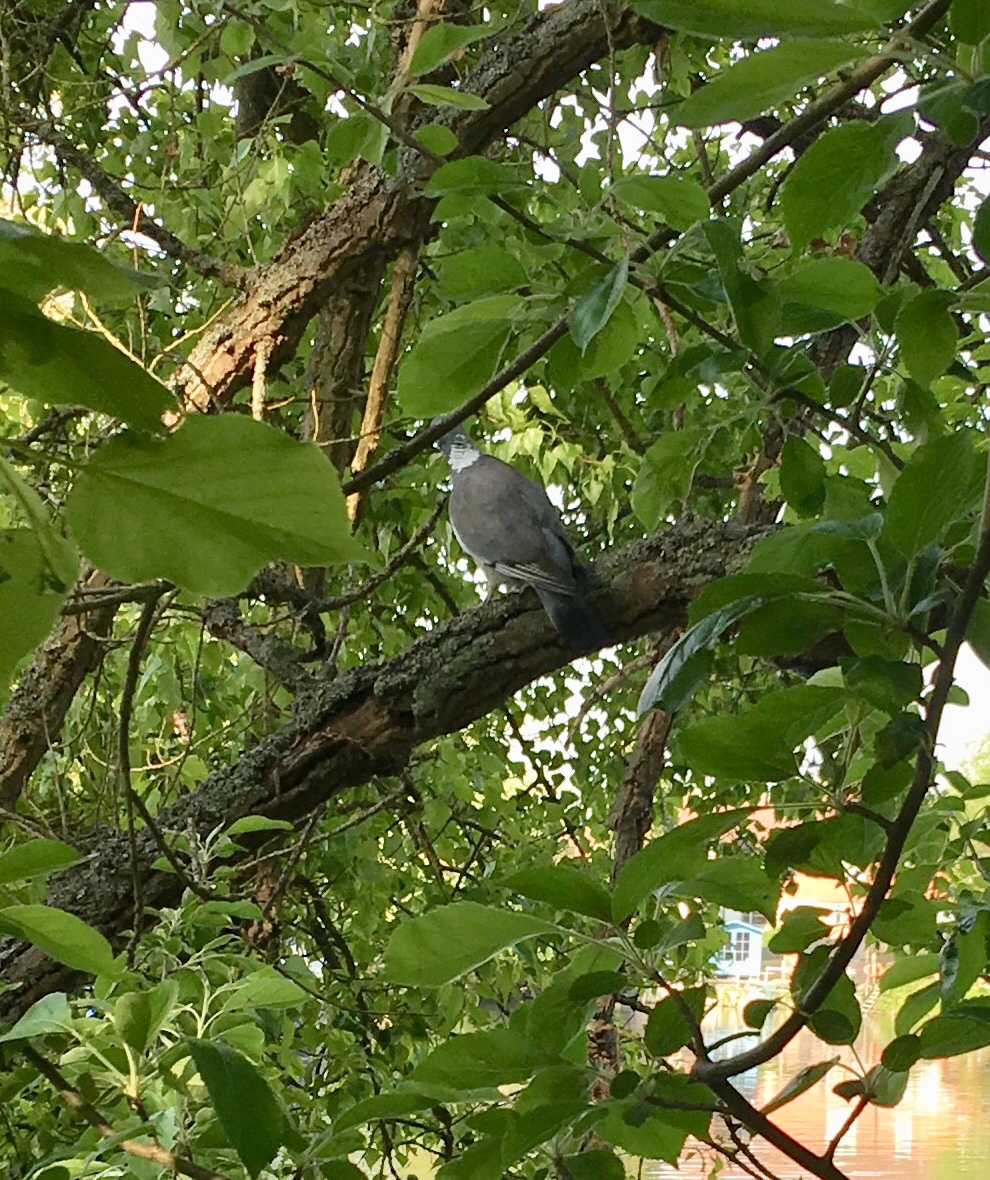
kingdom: Animalia
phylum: Chordata
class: Aves
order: Columbiformes
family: Columbidae
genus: Columba
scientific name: Columba palumbus
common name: Common wood pigeon
